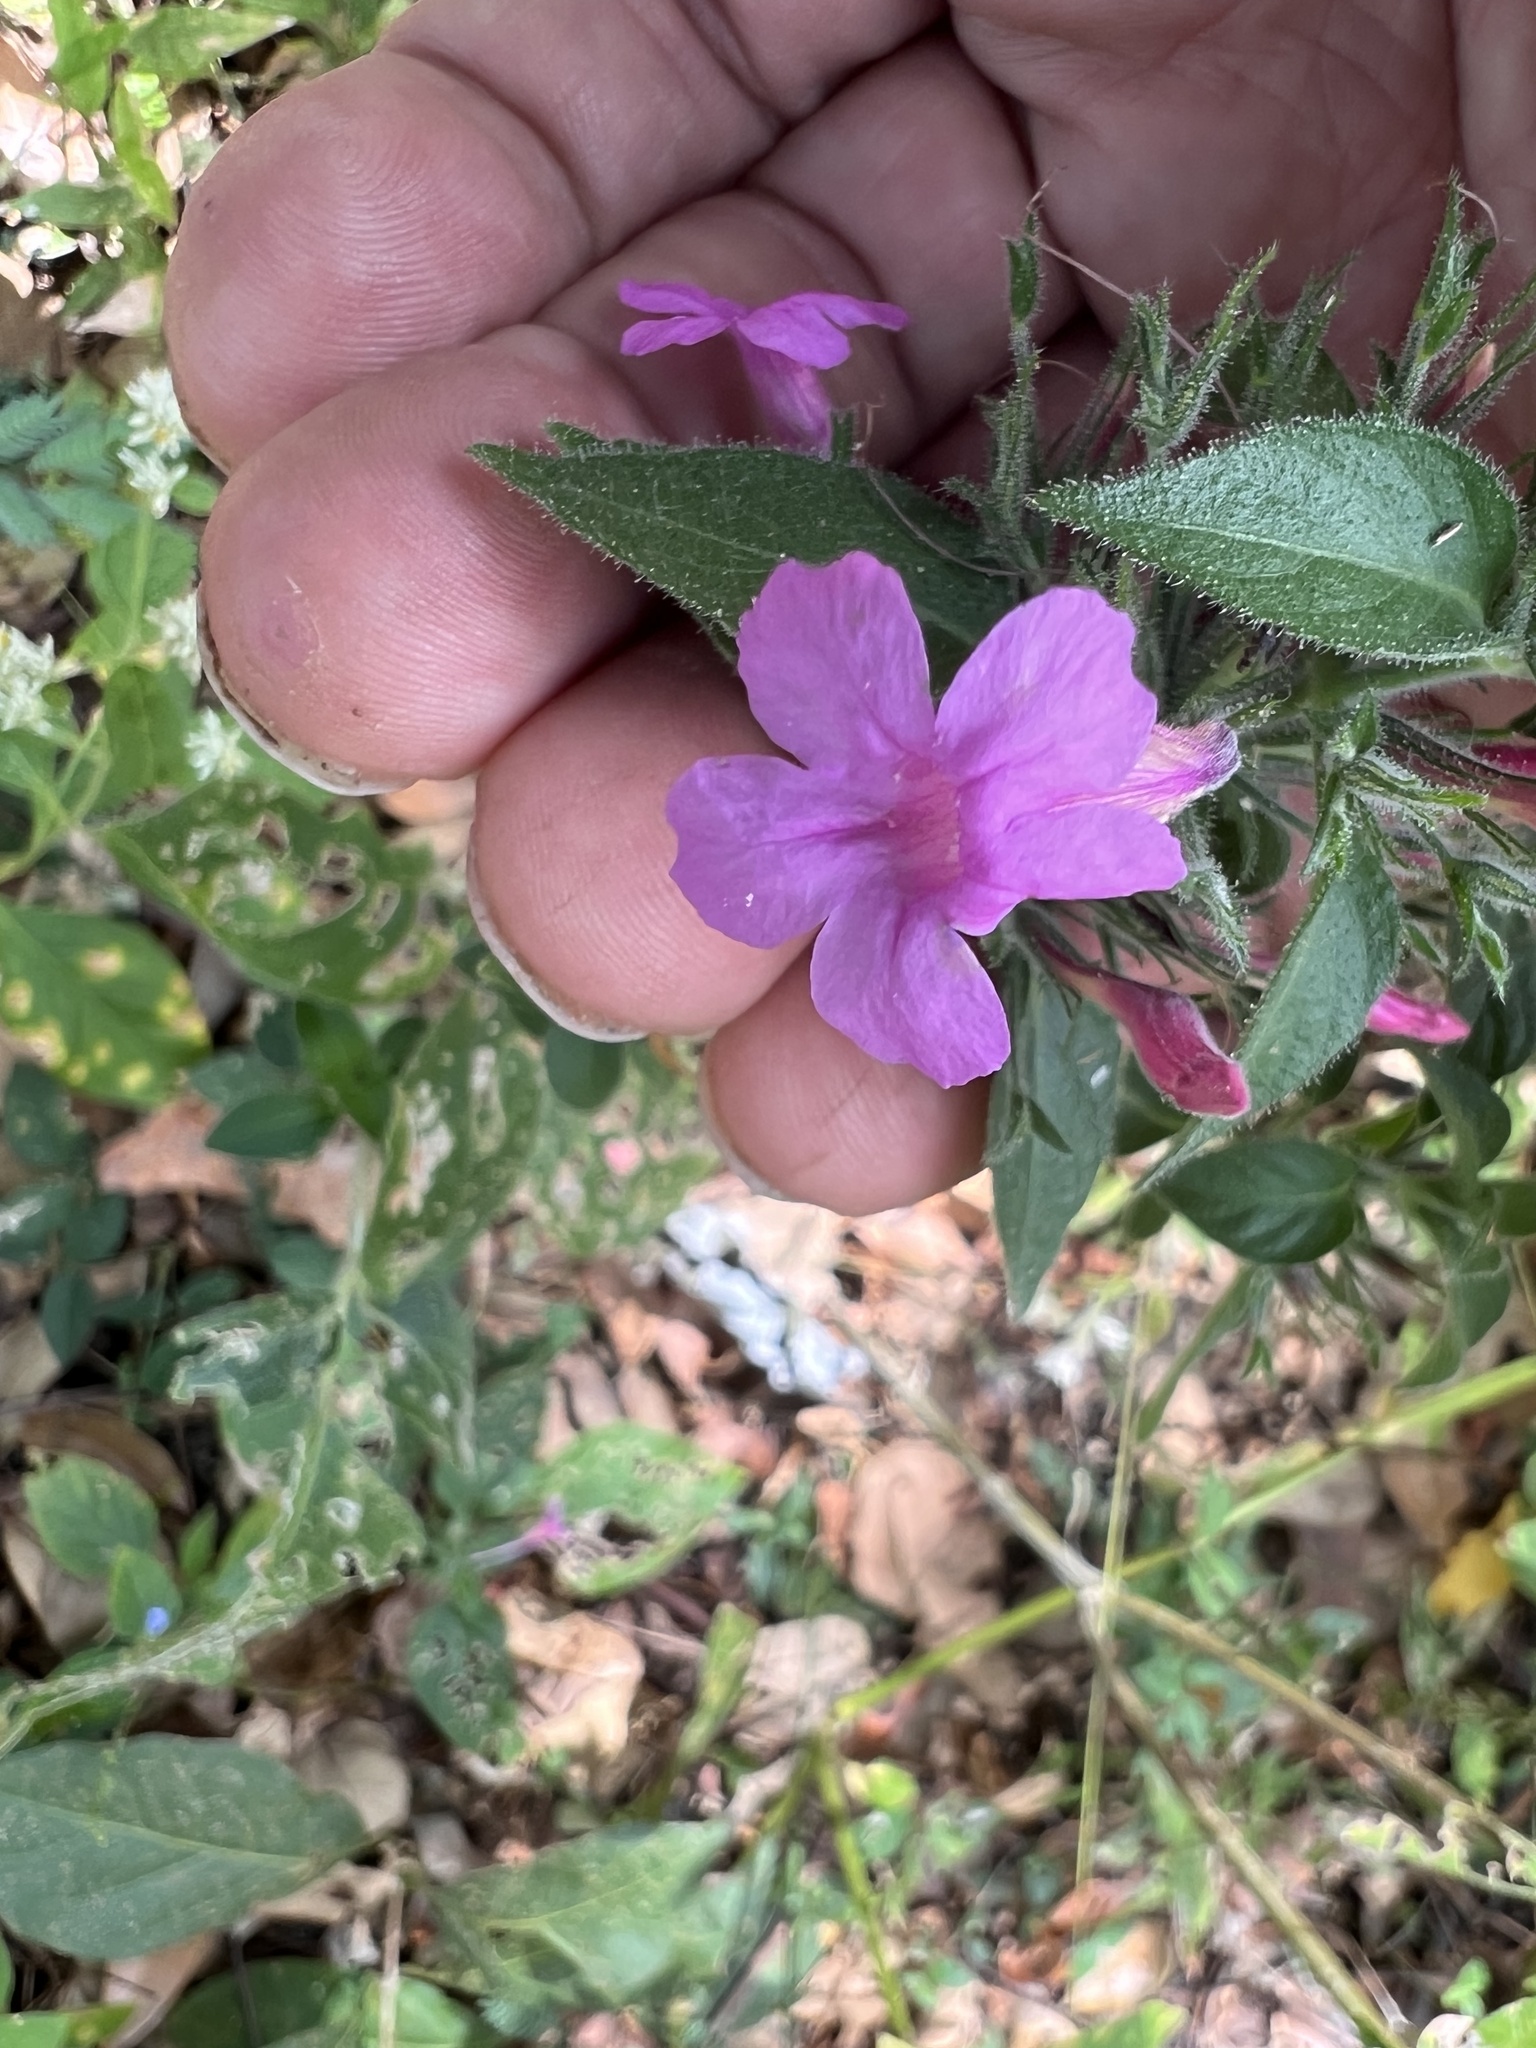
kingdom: Plantae
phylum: Tracheophyta
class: Magnoliopsida
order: Lamiales
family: Acanthaceae
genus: Ruellia
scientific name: Ruellia inundata
